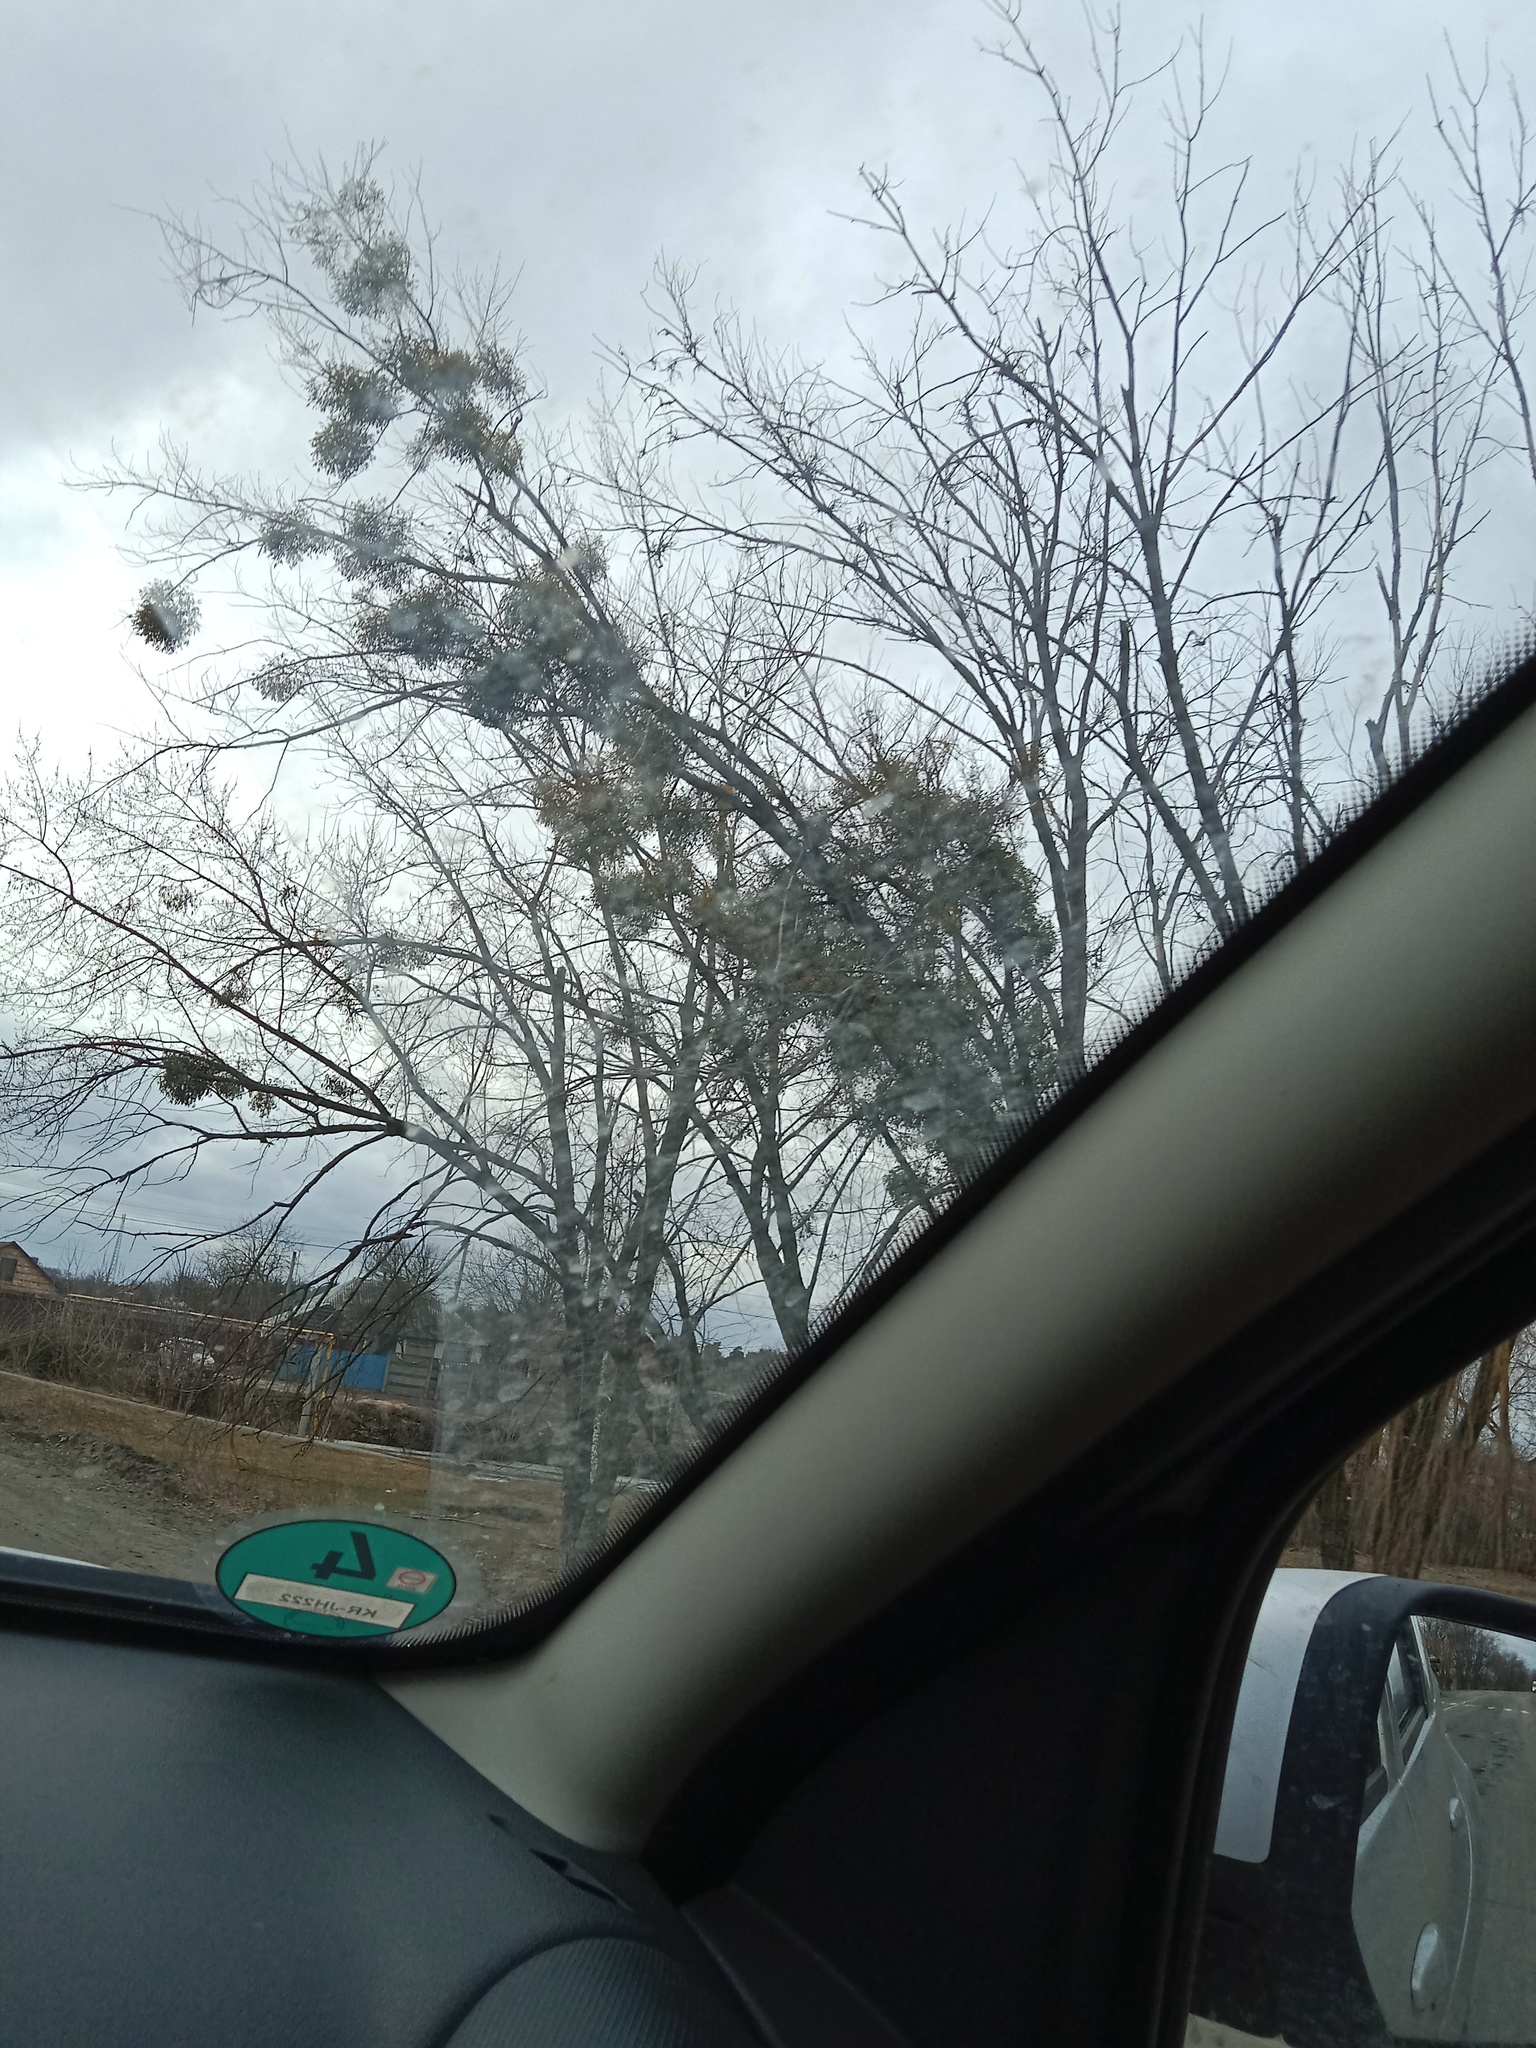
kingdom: Plantae
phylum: Tracheophyta
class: Magnoliopsida
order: Santalales
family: Viscaceae
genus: Viscum
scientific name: Viscum album
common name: Mistletoe
